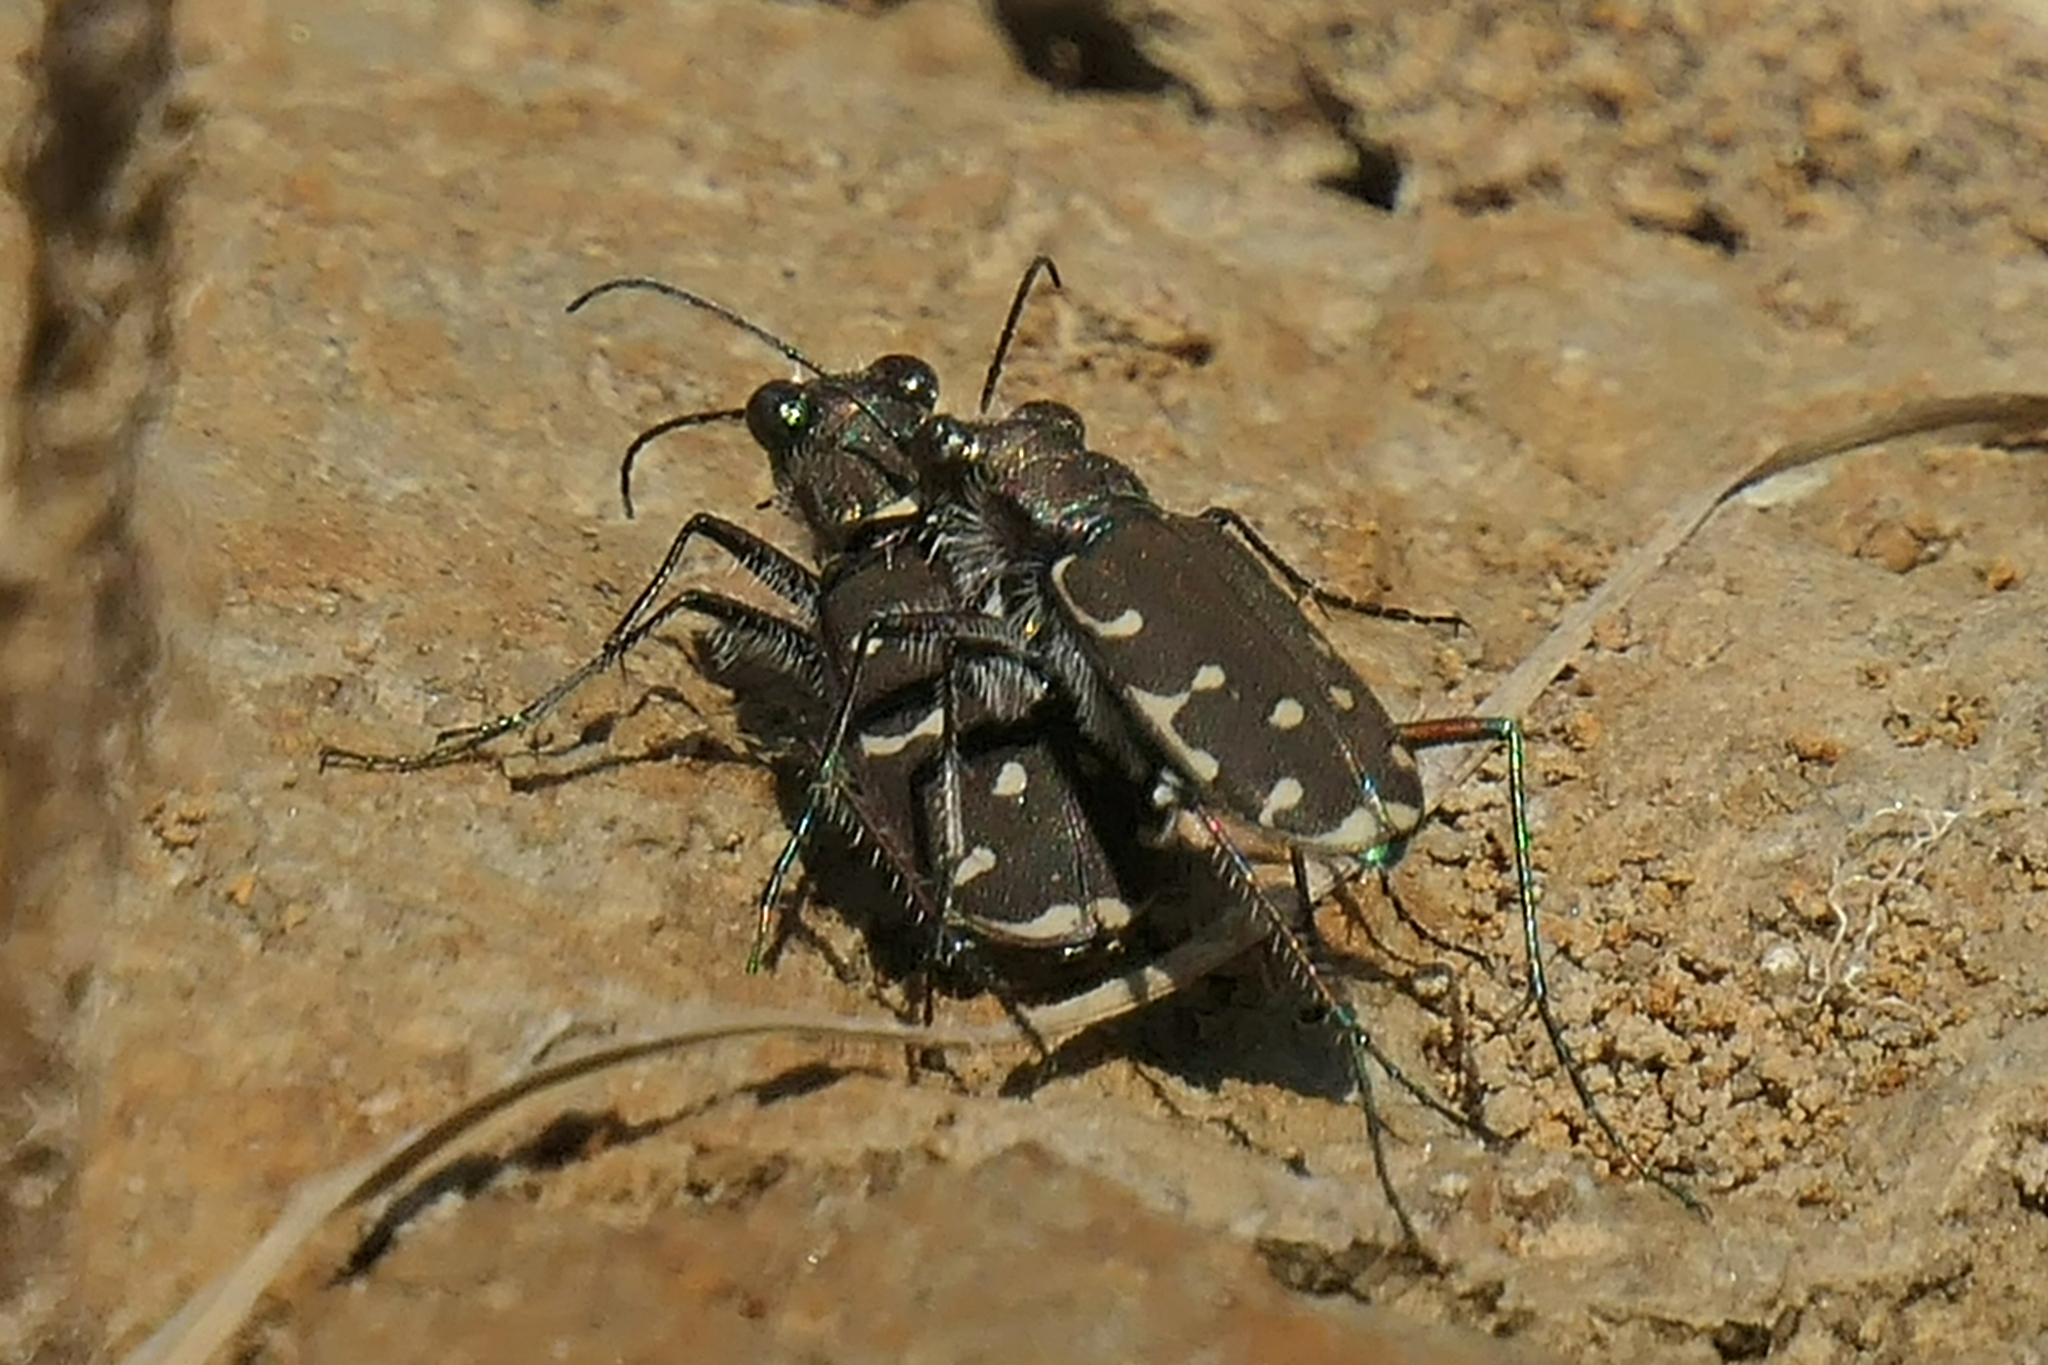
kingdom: Animalia
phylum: Arthropoda
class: Insecta
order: Coleoptera
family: Carabidae
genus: Cicindela
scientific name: Cicindela duodecimguttata
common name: Twelve-spotted tiger beetle
